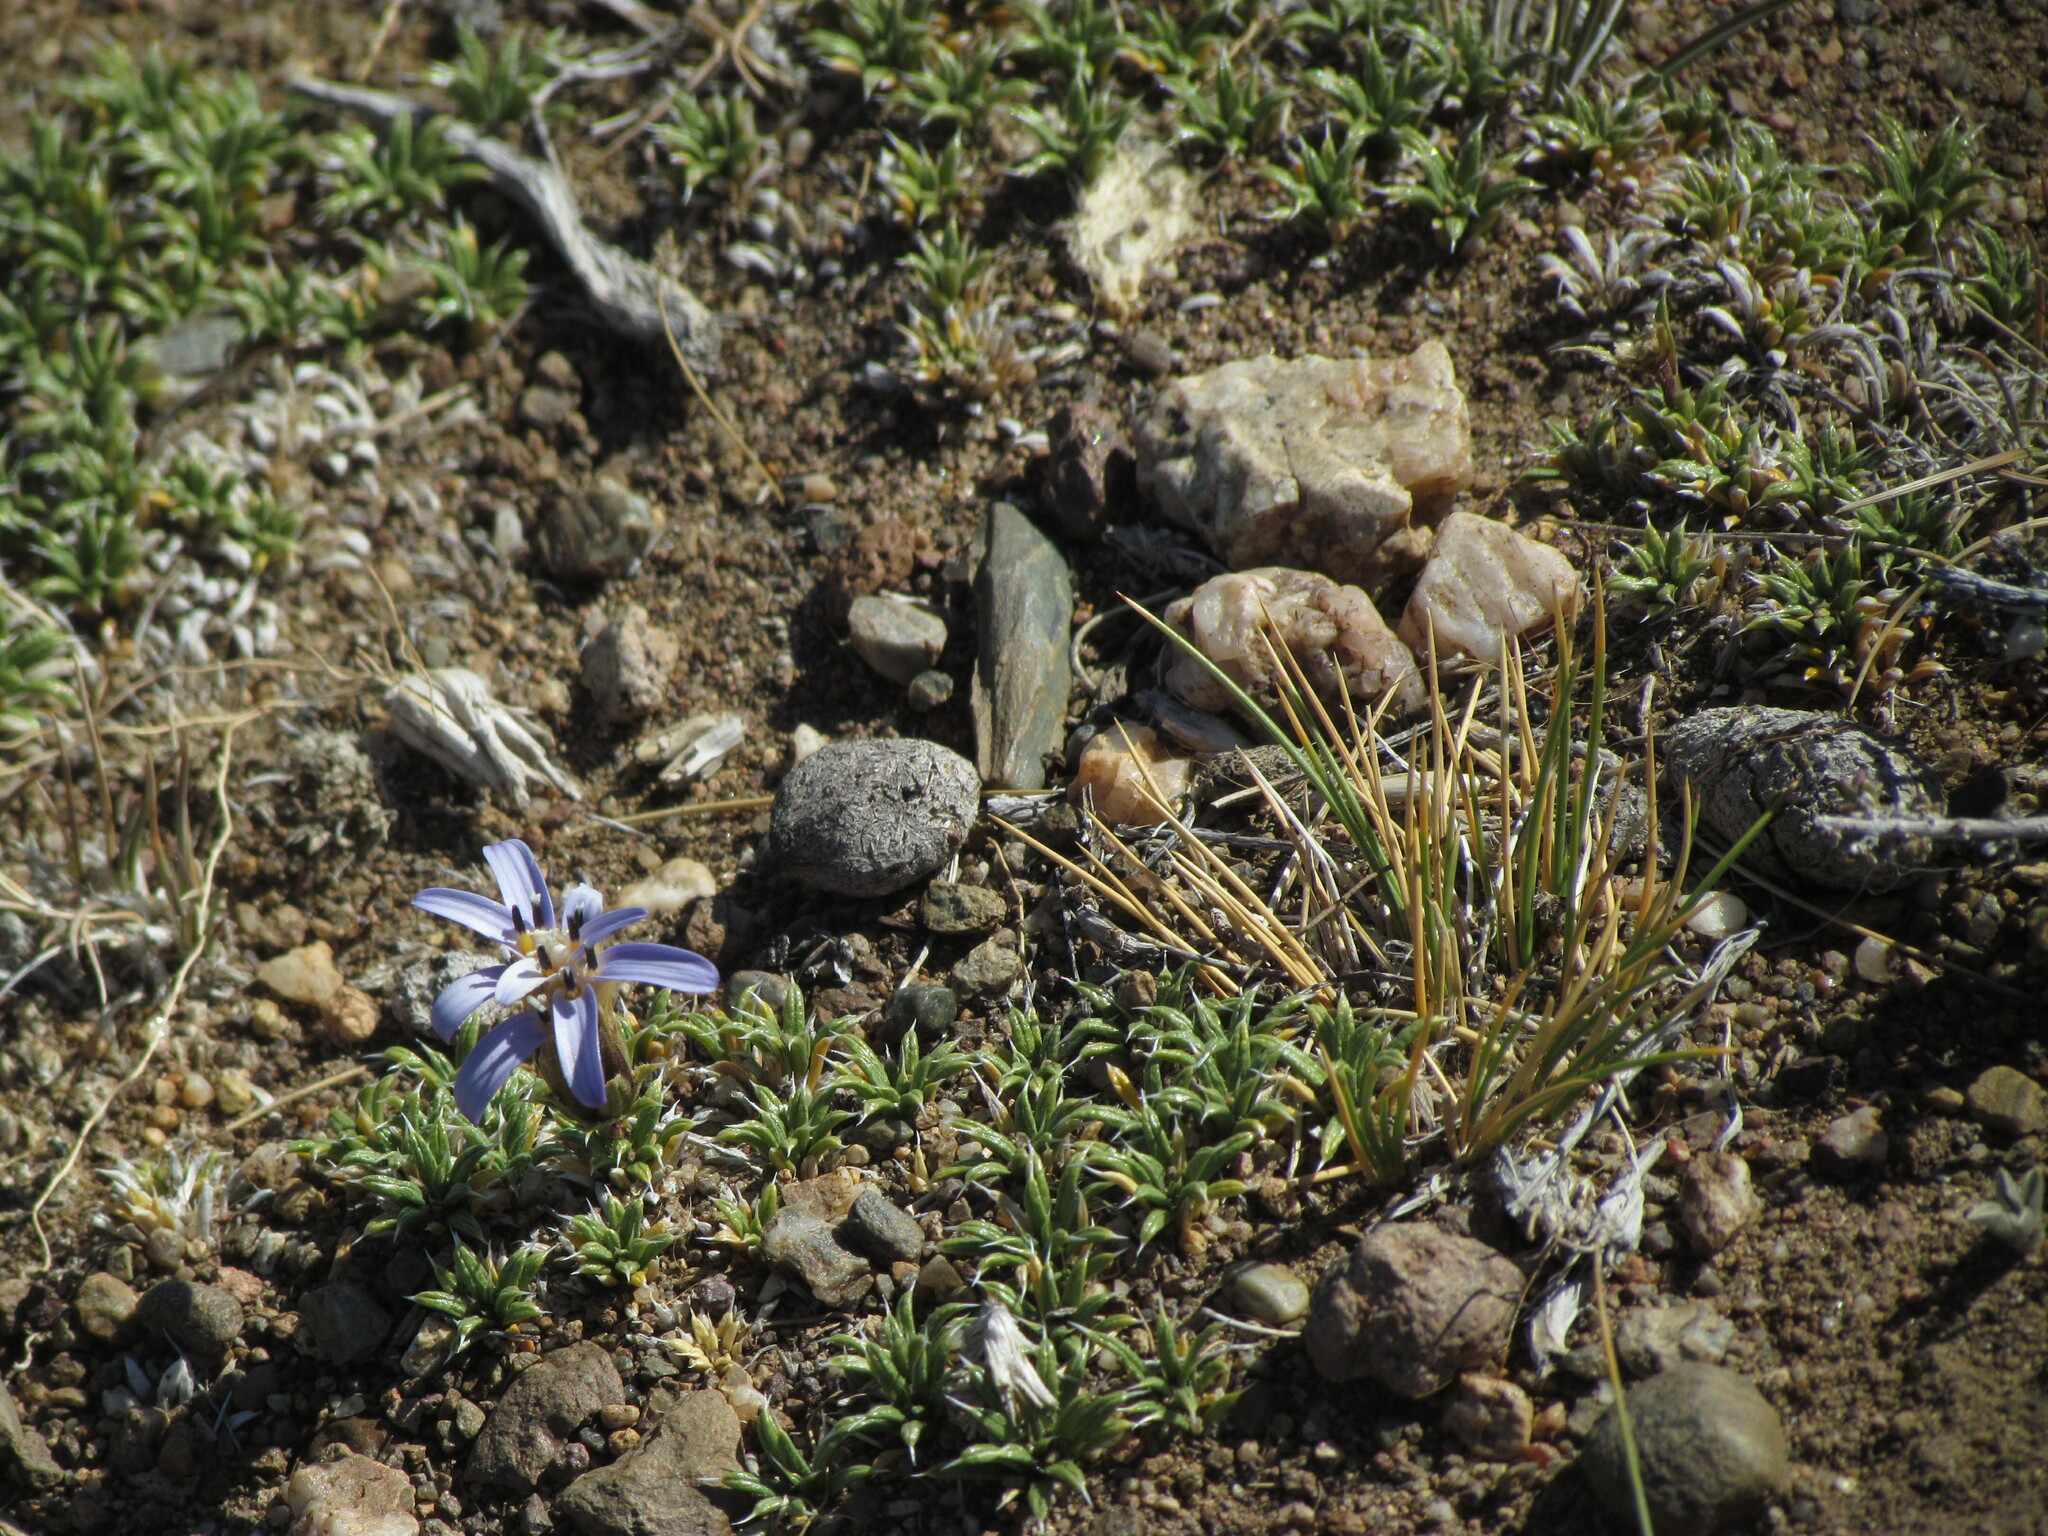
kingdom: Plantae
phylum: Tracheophyta
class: Magnoliopsida
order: Asterales
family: Asteraceae
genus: Perezia
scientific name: Perezia recurvata
